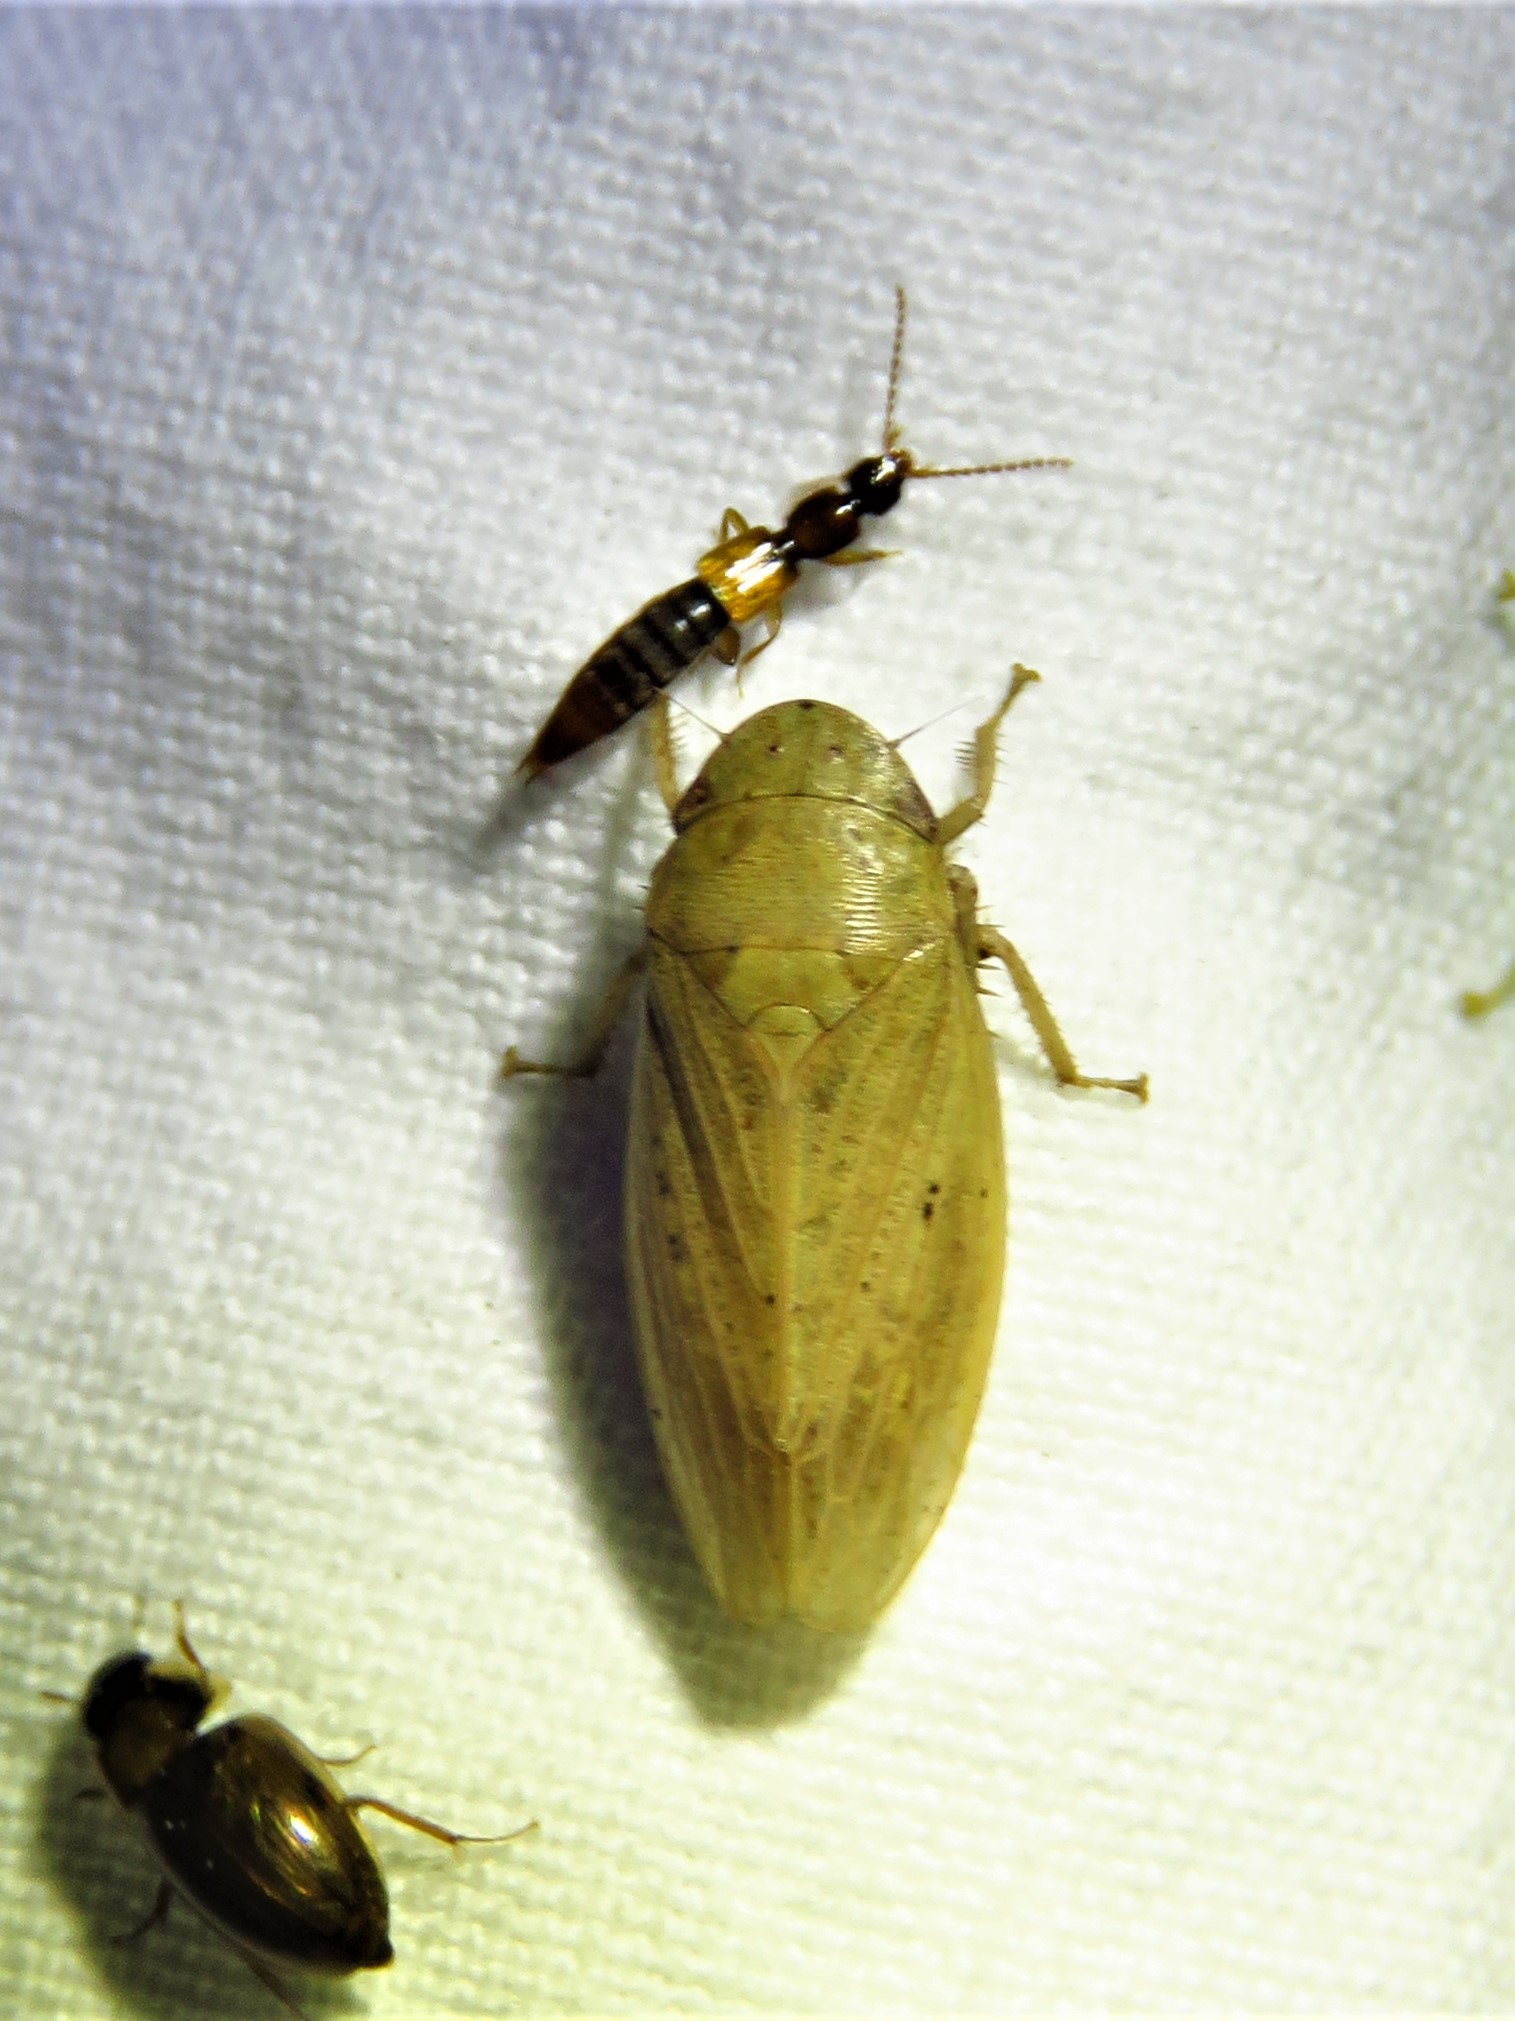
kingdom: Animalia
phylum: Arthropoda
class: Insecta
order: Hemiptera
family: Cicadellidae
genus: Negosiana
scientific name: Negosiana dualis
